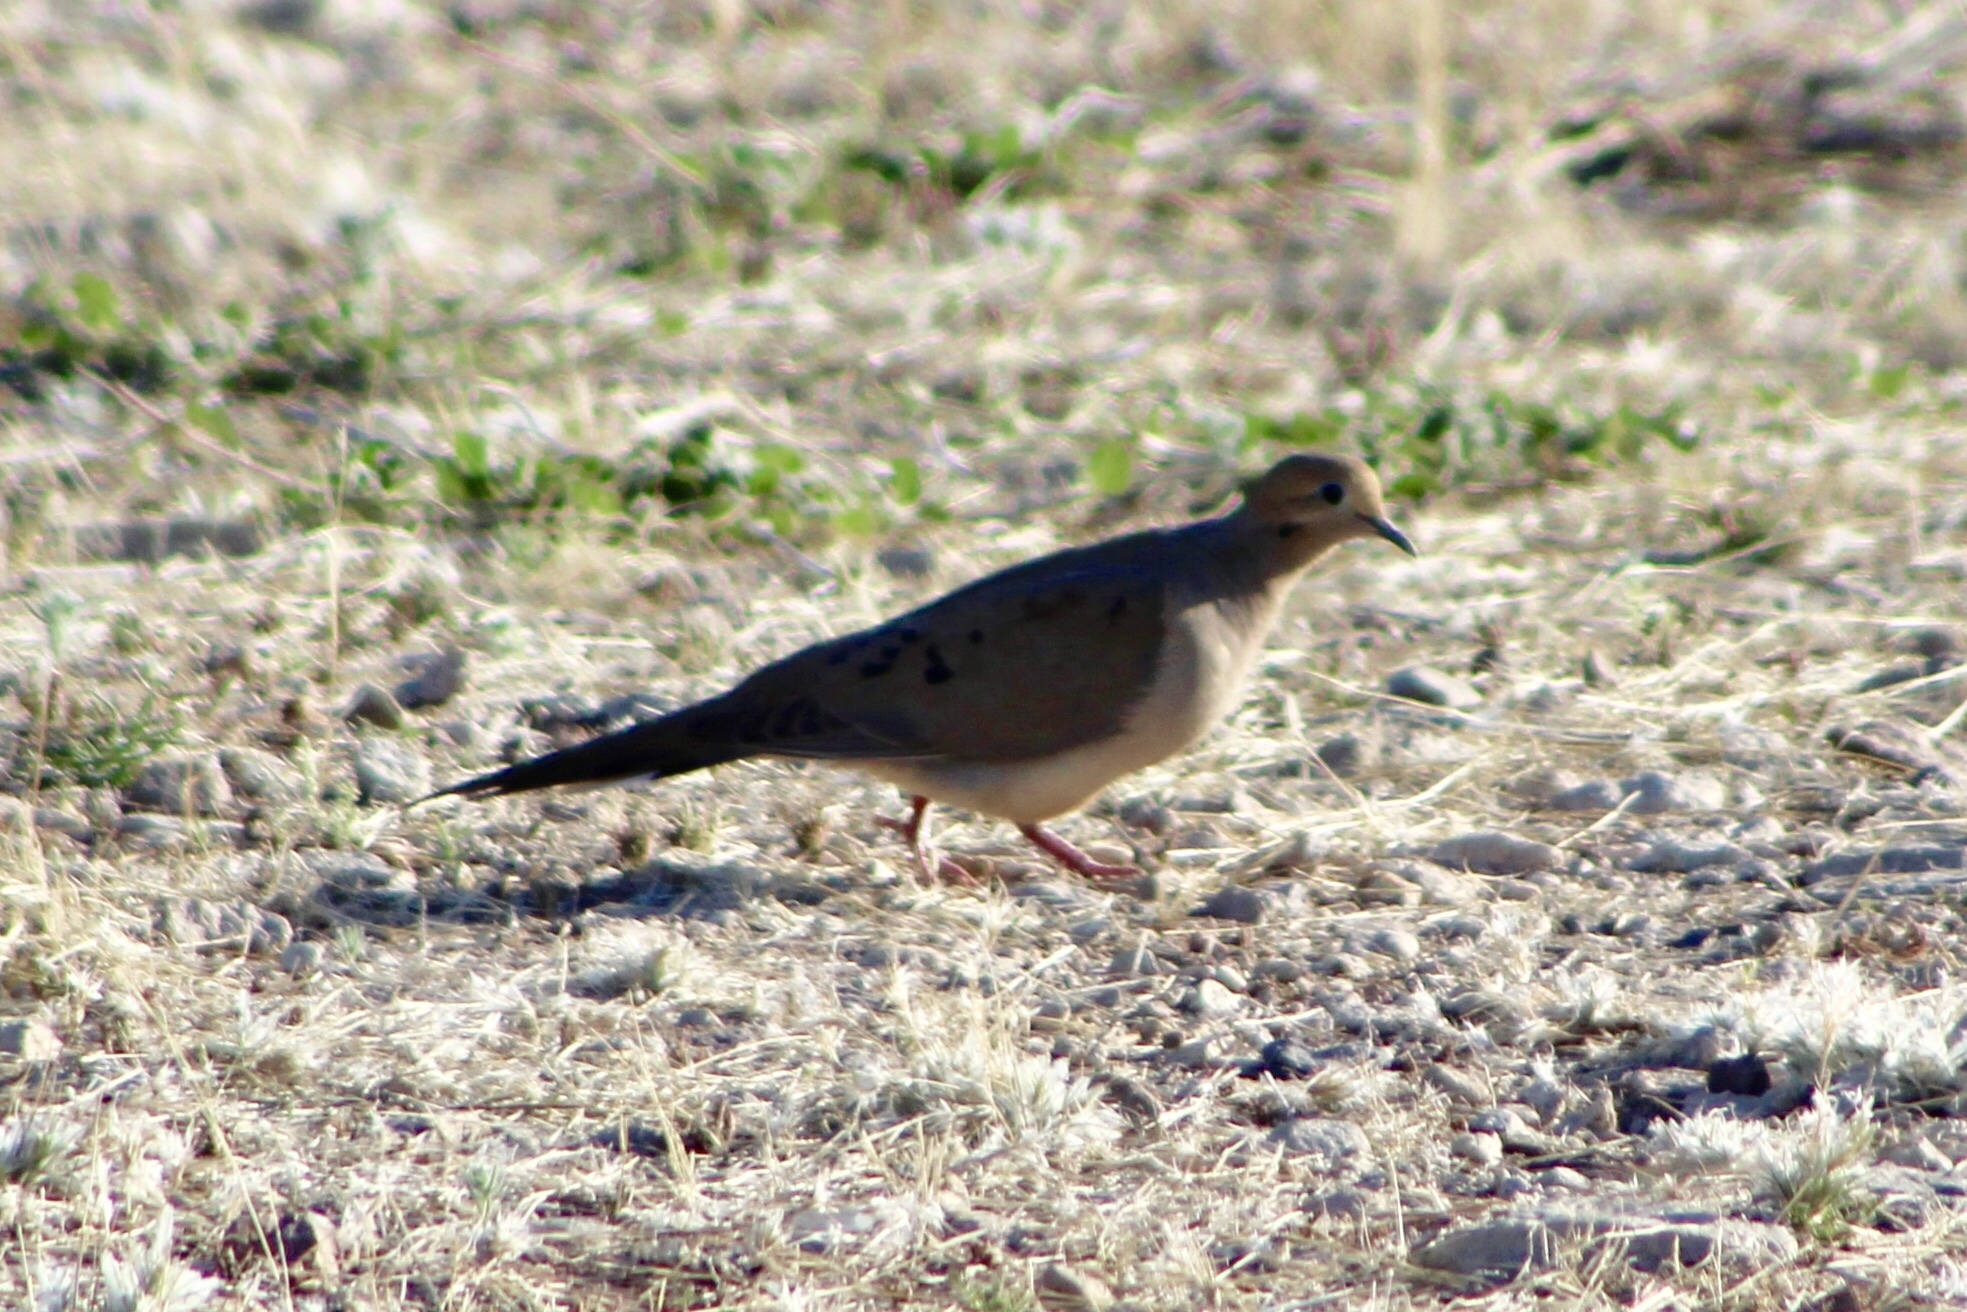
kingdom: Animalia
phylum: Chordata
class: Aves
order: Columbiformes
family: Columbidae
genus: Zenaida
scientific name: Zenaida macroura
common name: Mourning dove
